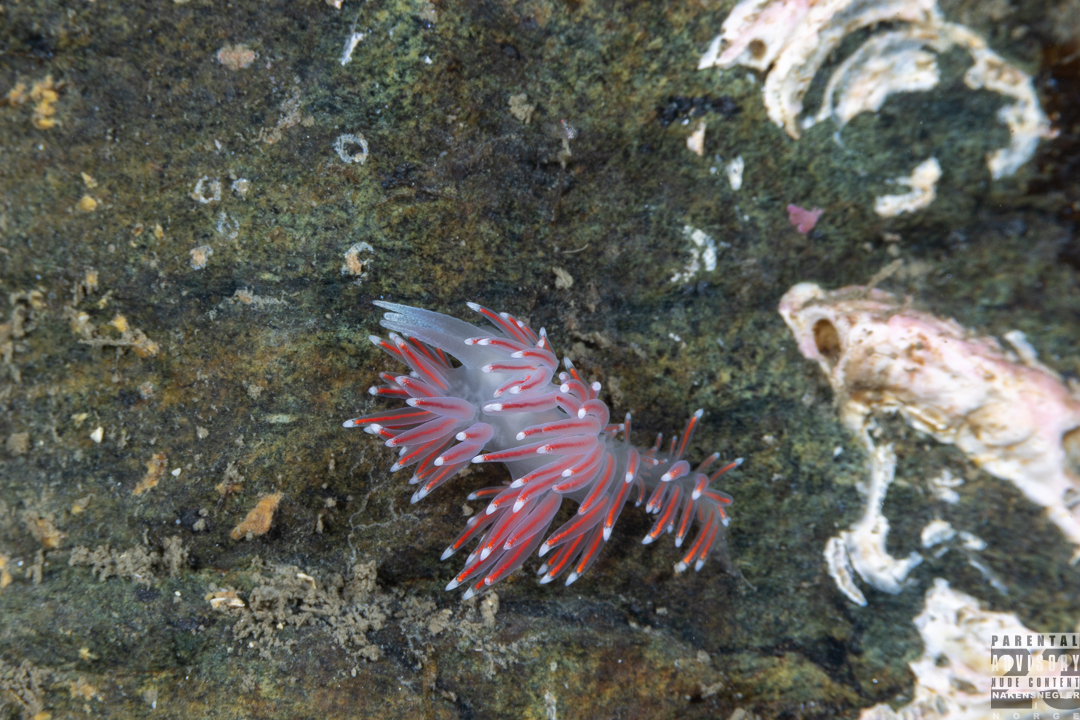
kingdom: Animalia
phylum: Mollusca
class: Gastropoda
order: Nudibranchia
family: Flabellinidae
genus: Carronella
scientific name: Carronella pellucida
